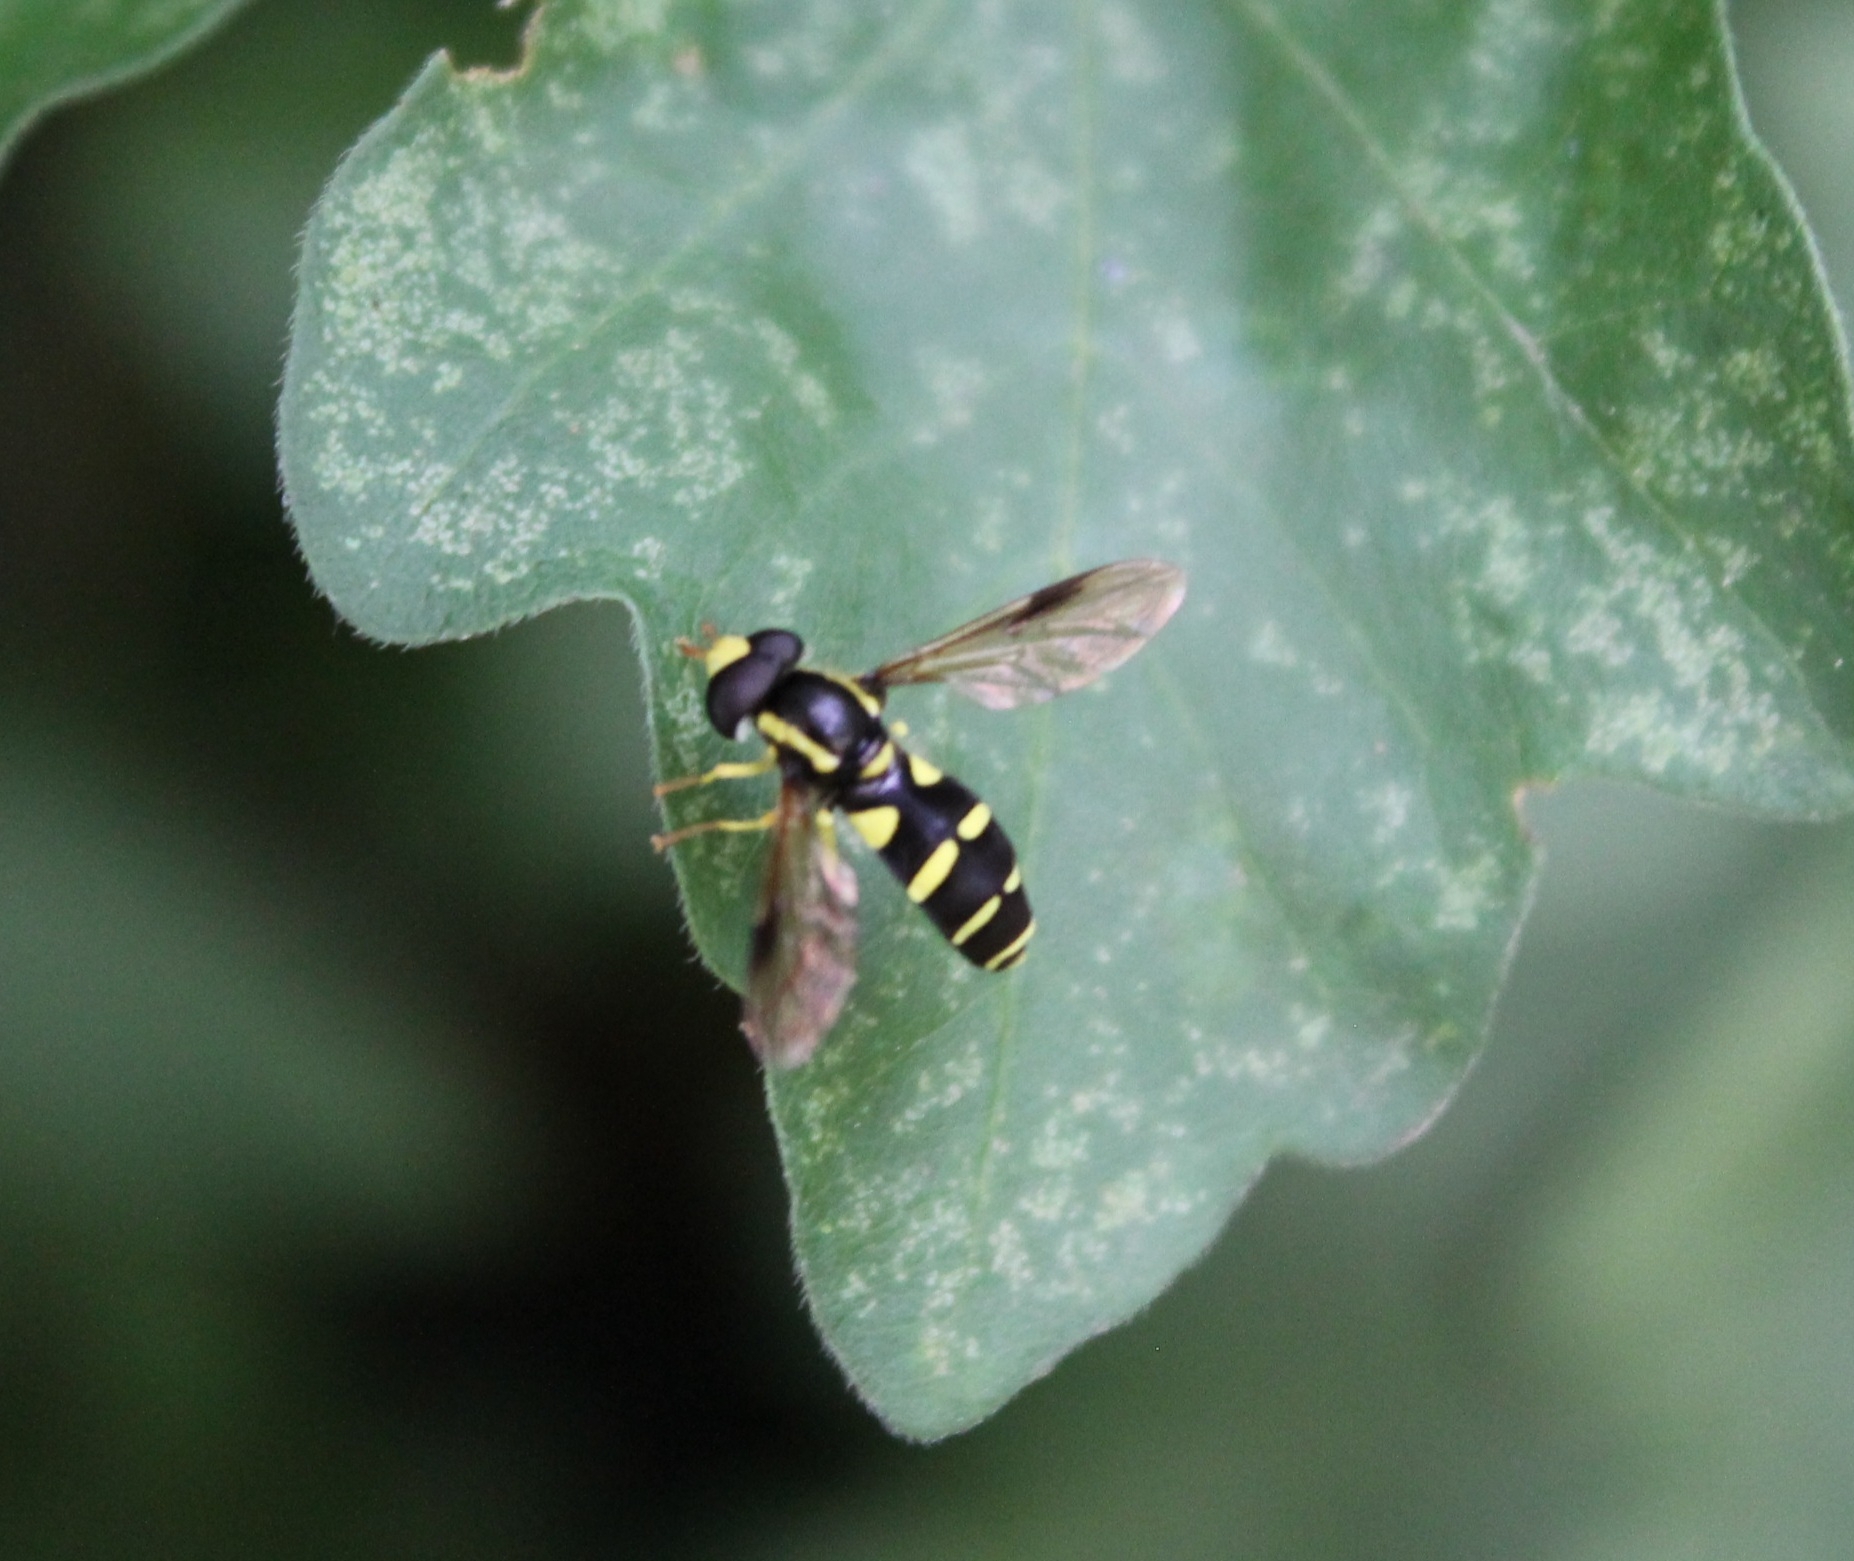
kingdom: Animalia
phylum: Arthropoda
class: Insecta
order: Diptera
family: Syrphidae
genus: Philhelius
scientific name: Philhelius pedissequum
